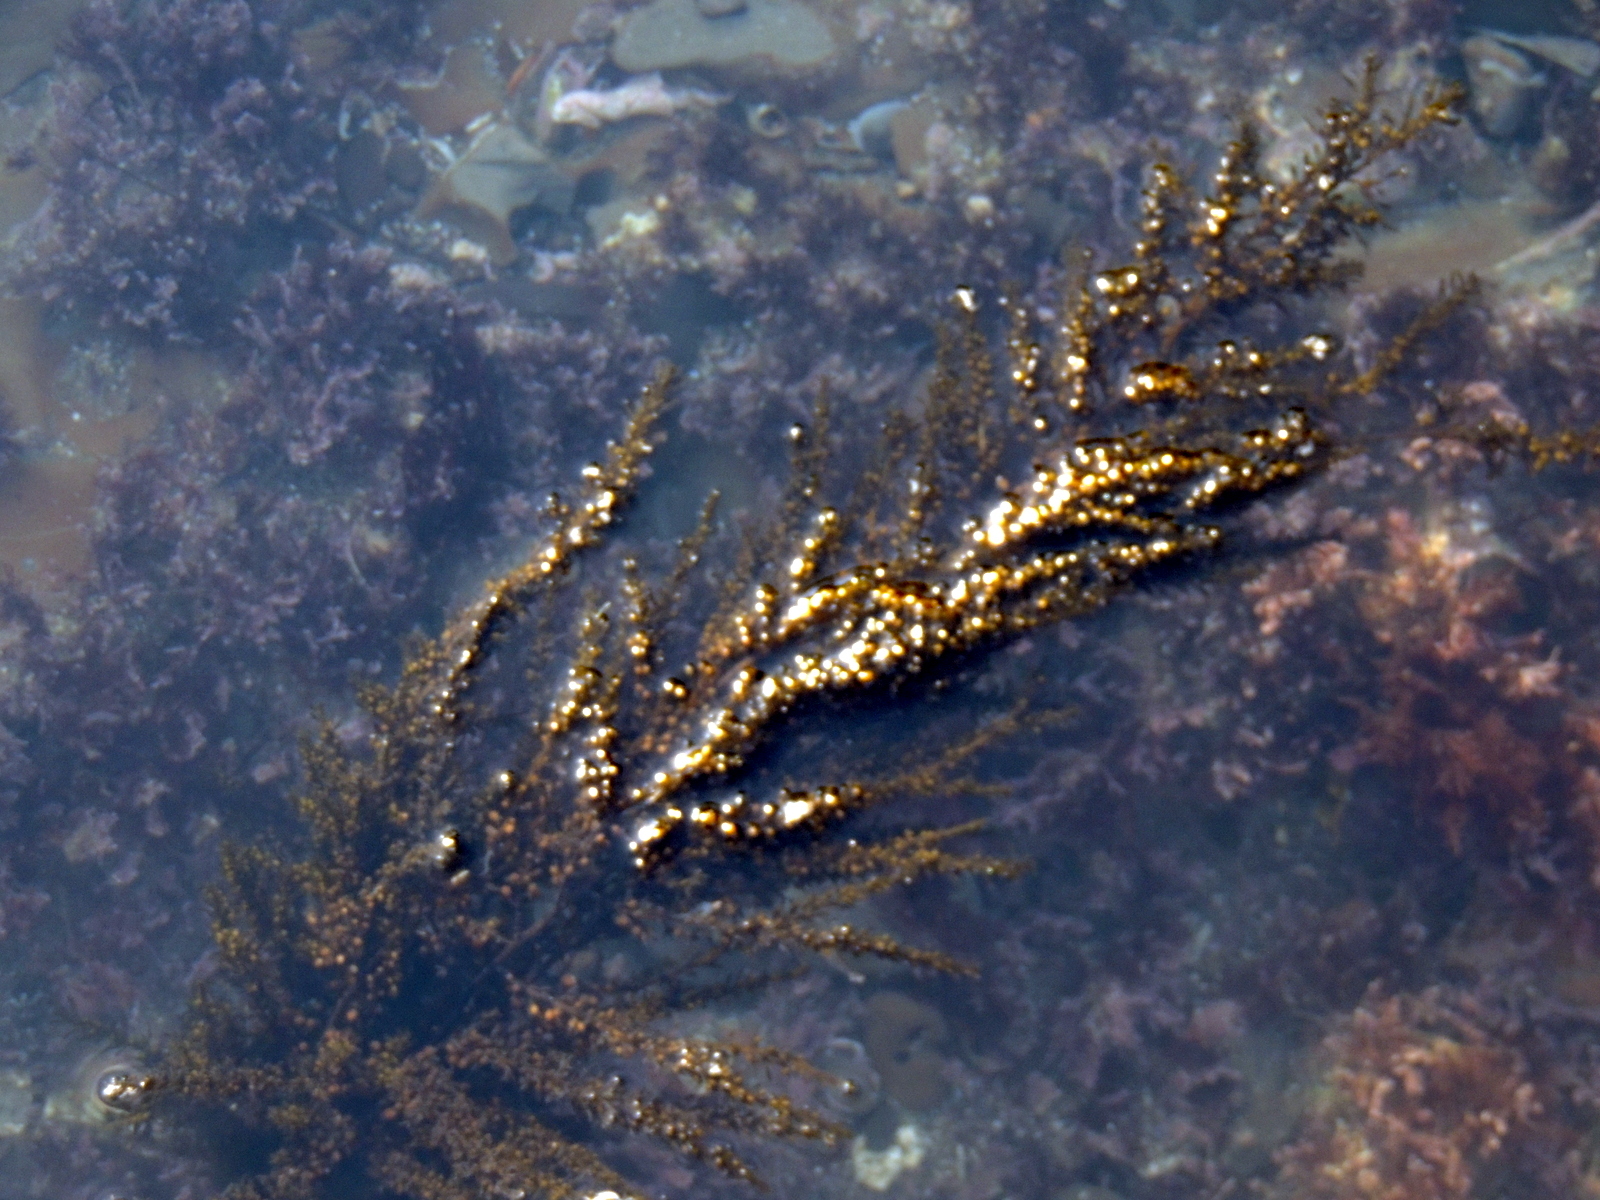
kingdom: Chromista
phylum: Ochrophyta
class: Phaeophyceae
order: Fucales
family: Sargassaceae
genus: Sargassum
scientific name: Sargassum muticum
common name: Japweed
